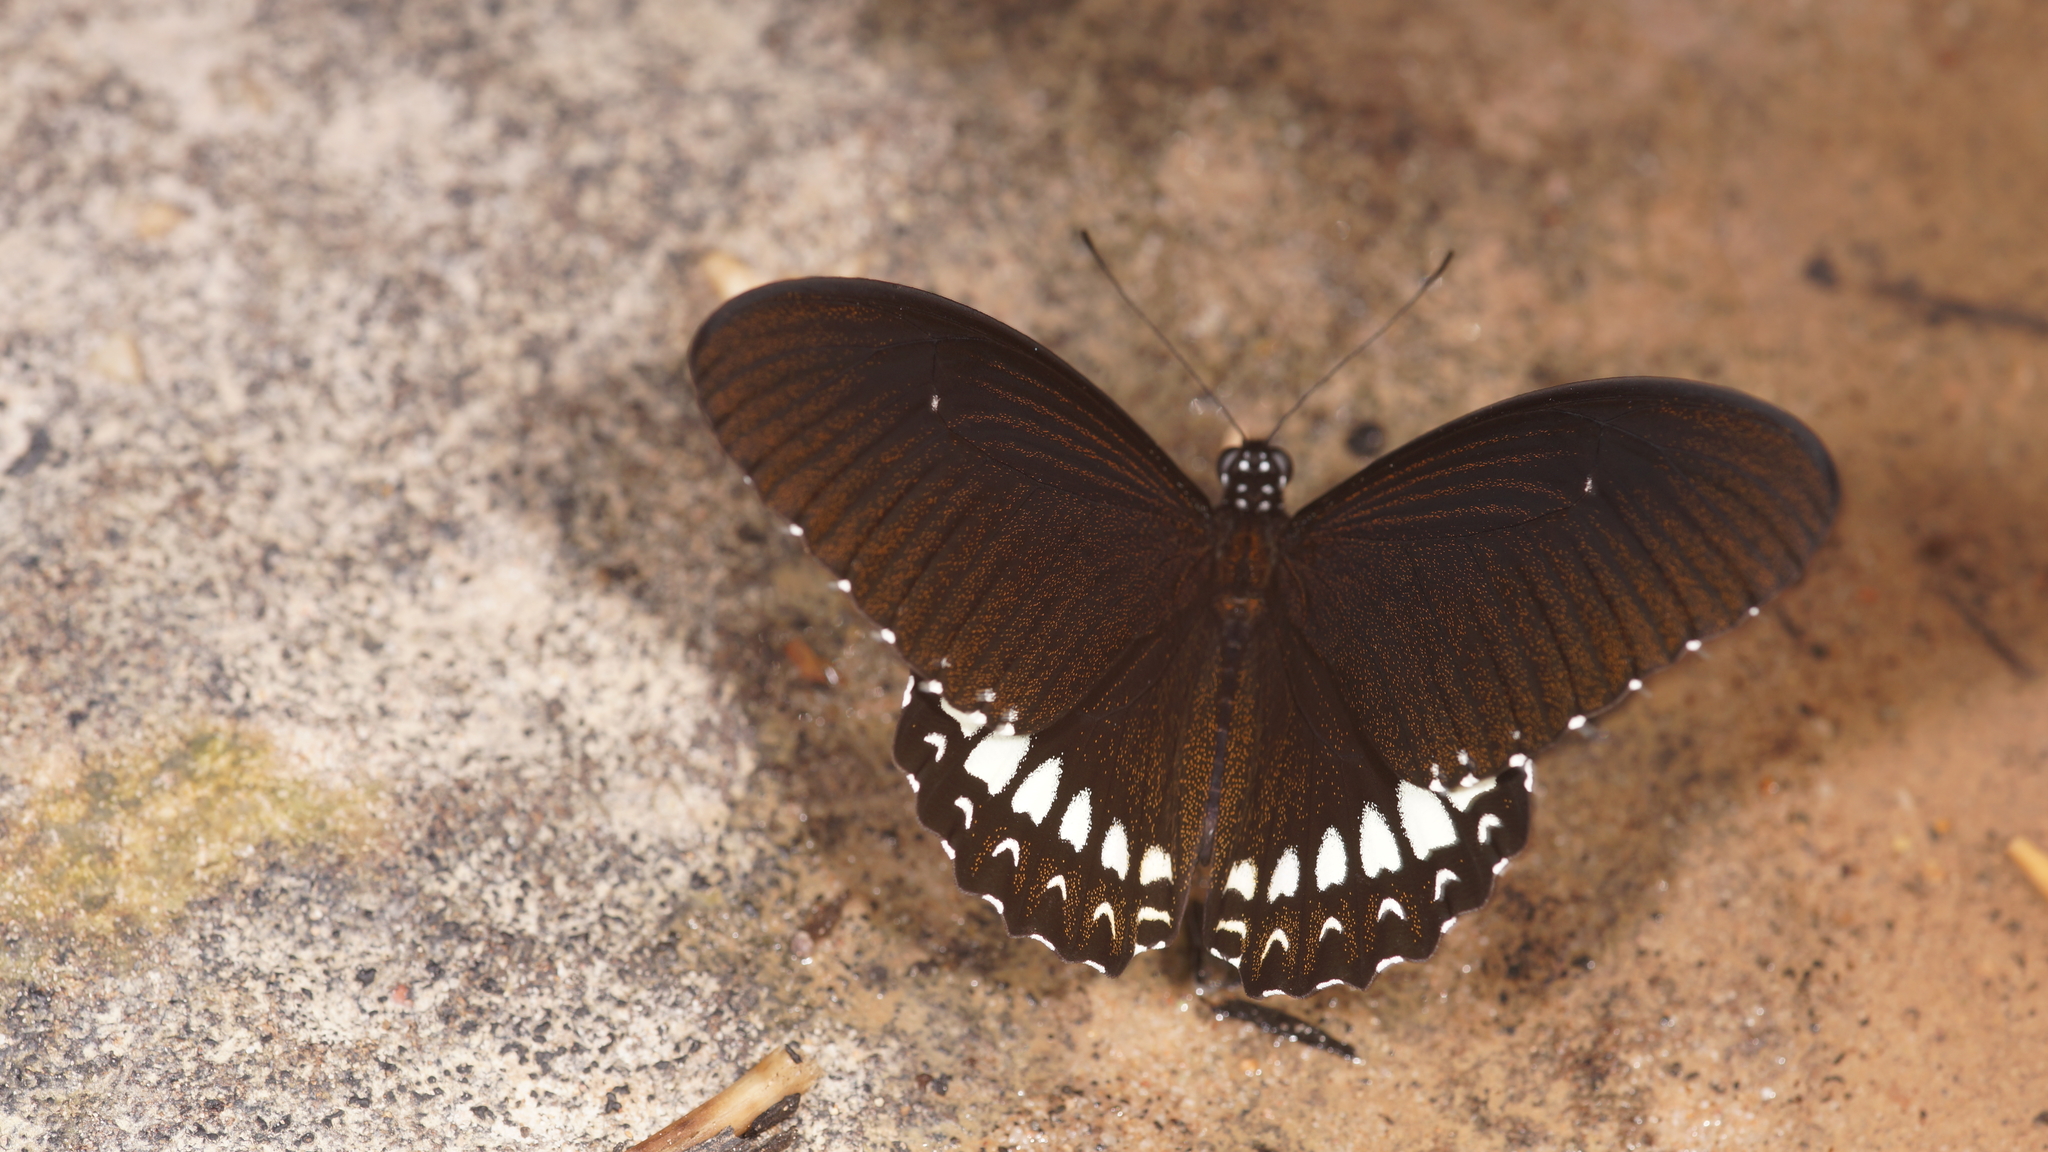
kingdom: Animalia
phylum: Arthropoda
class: Insecta
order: Lepidoptera
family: Papilionidae
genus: Papilio
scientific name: Papilio castor
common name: Common raven
